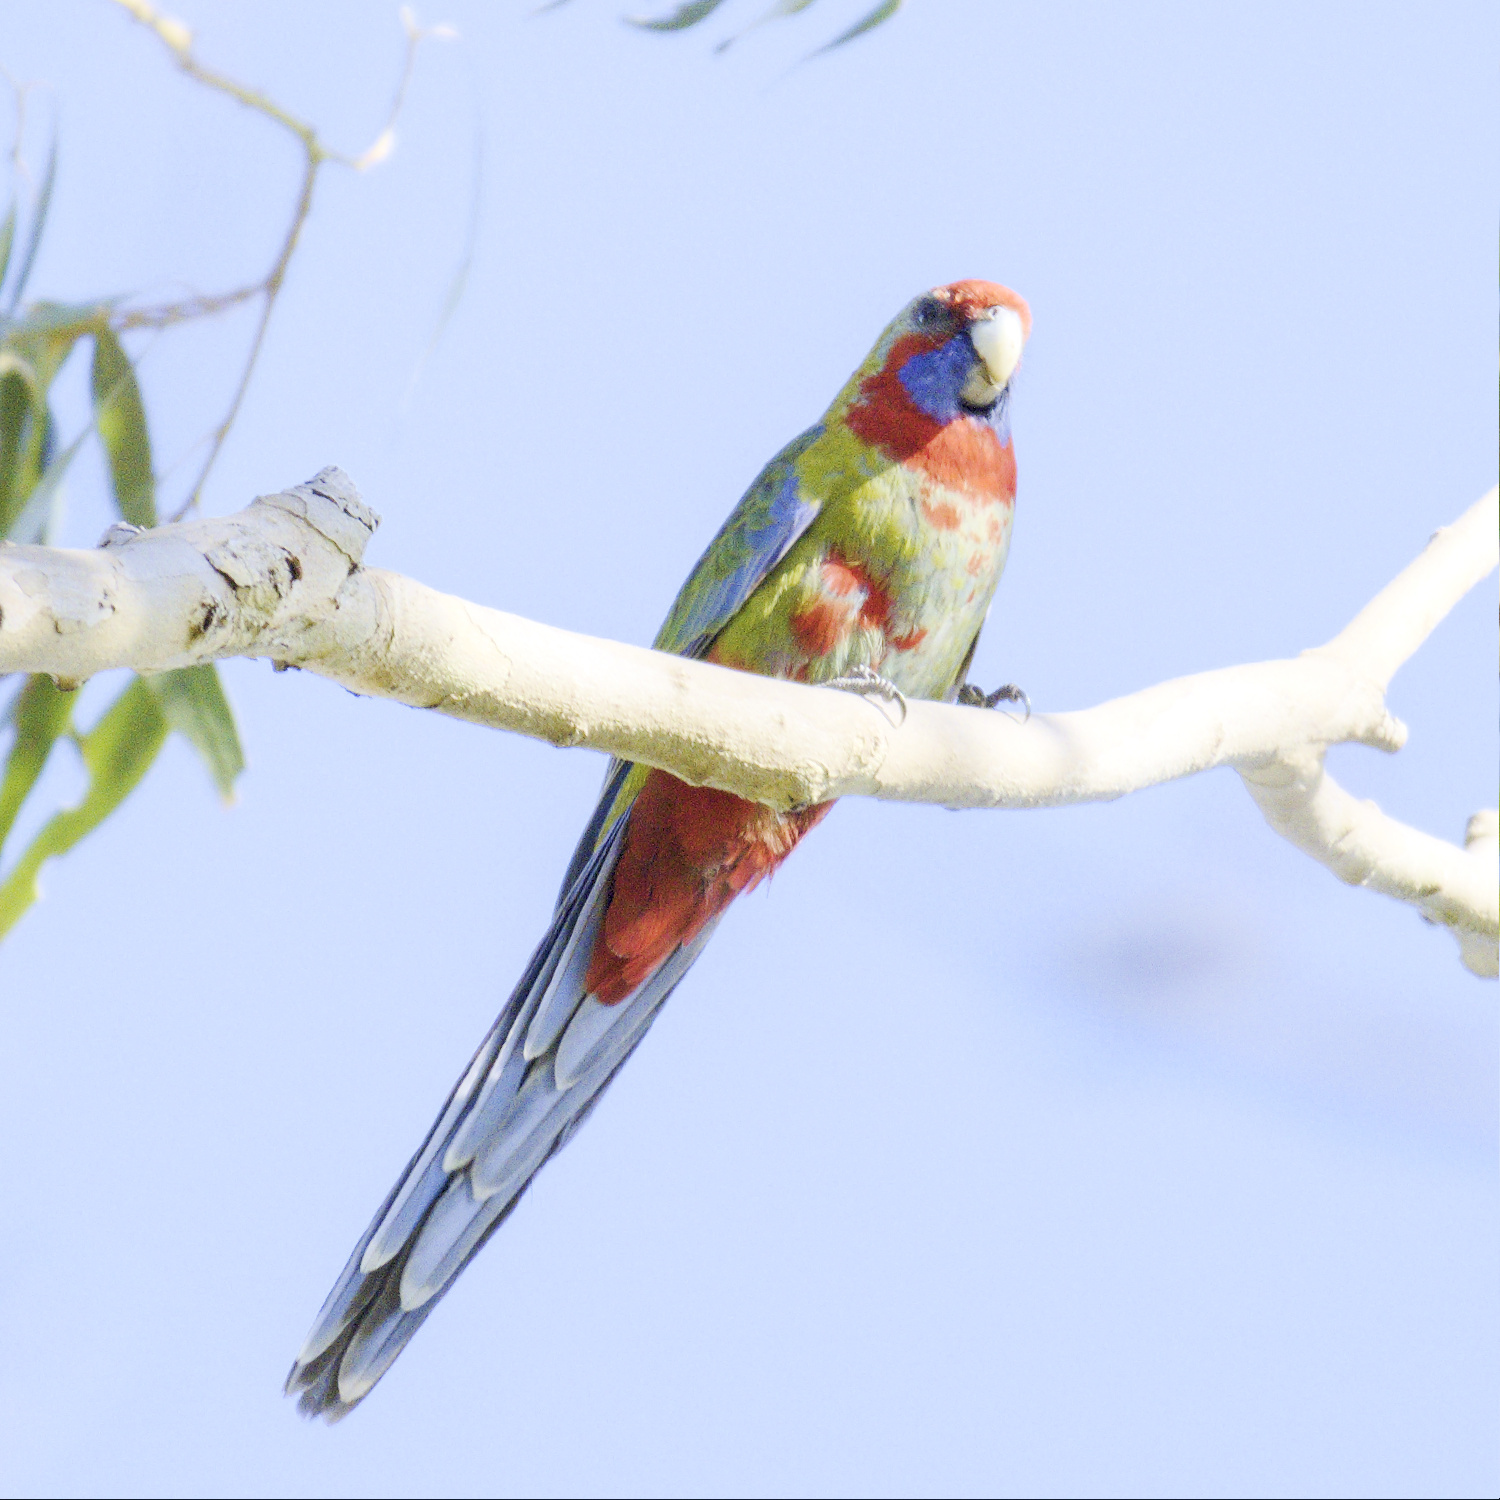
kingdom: Animalia
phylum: Chordata
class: Aves
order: Psittaciformes
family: Psittacidae
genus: Platycercus
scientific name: Platycercus elegans
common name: Crimson rosella
